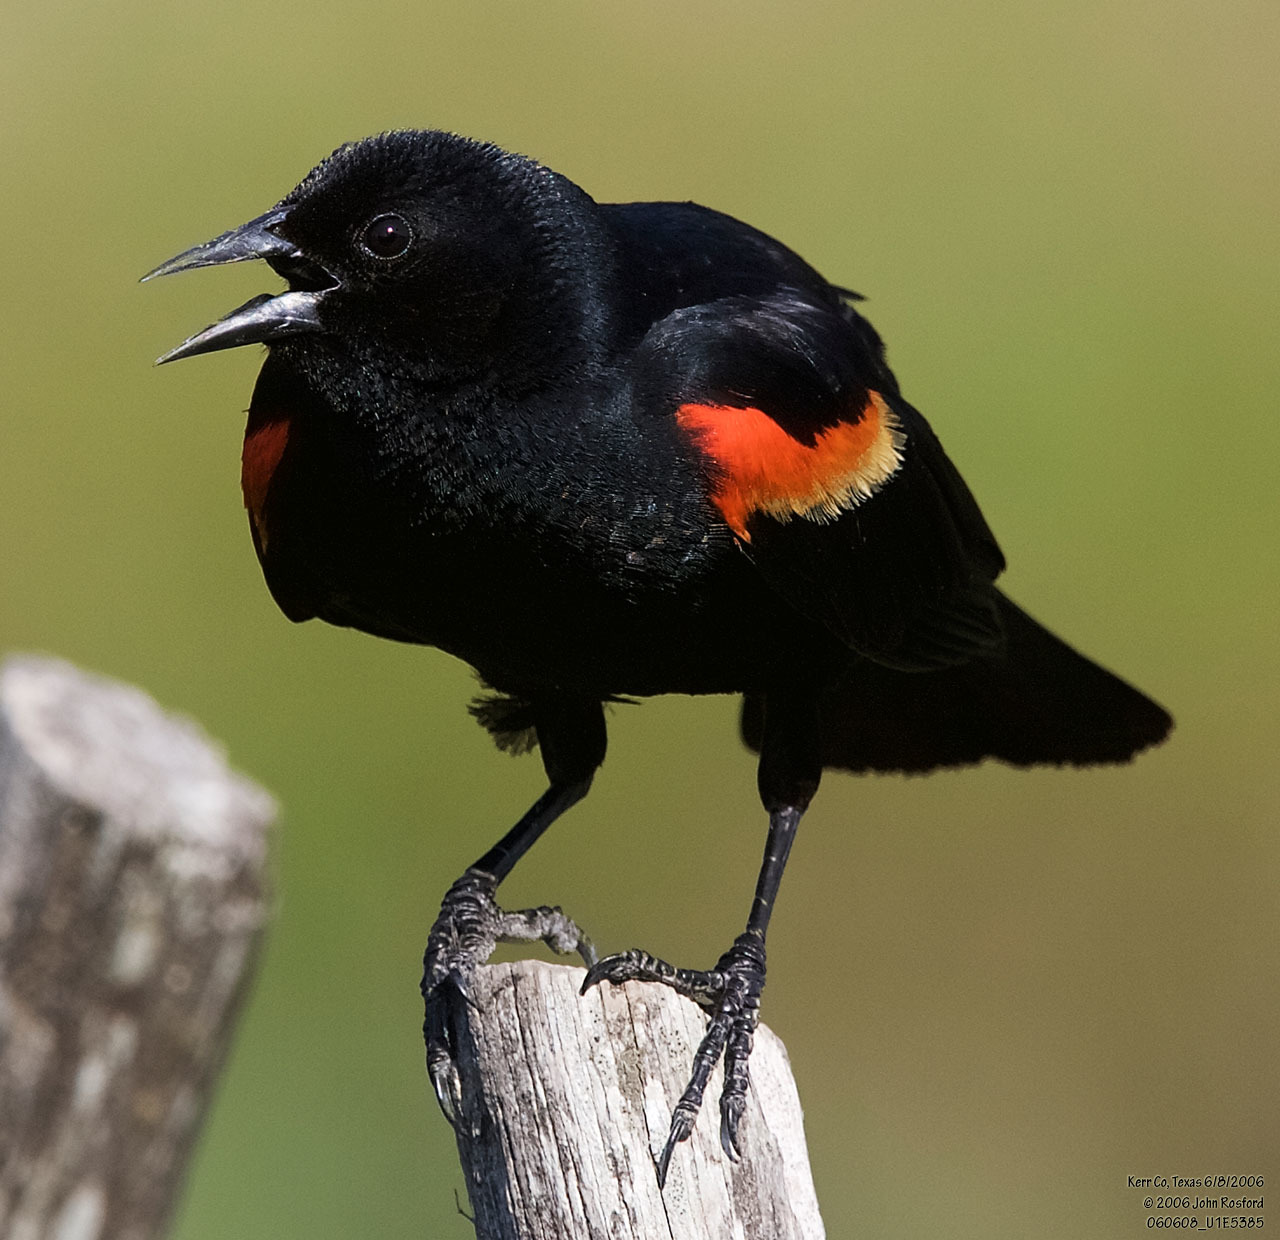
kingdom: Animalia
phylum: Chordata
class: Aves
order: Passeriformes
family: Icteridae
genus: Agelaius
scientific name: Agelaius phoeniceus
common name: Red-winged blackbird
